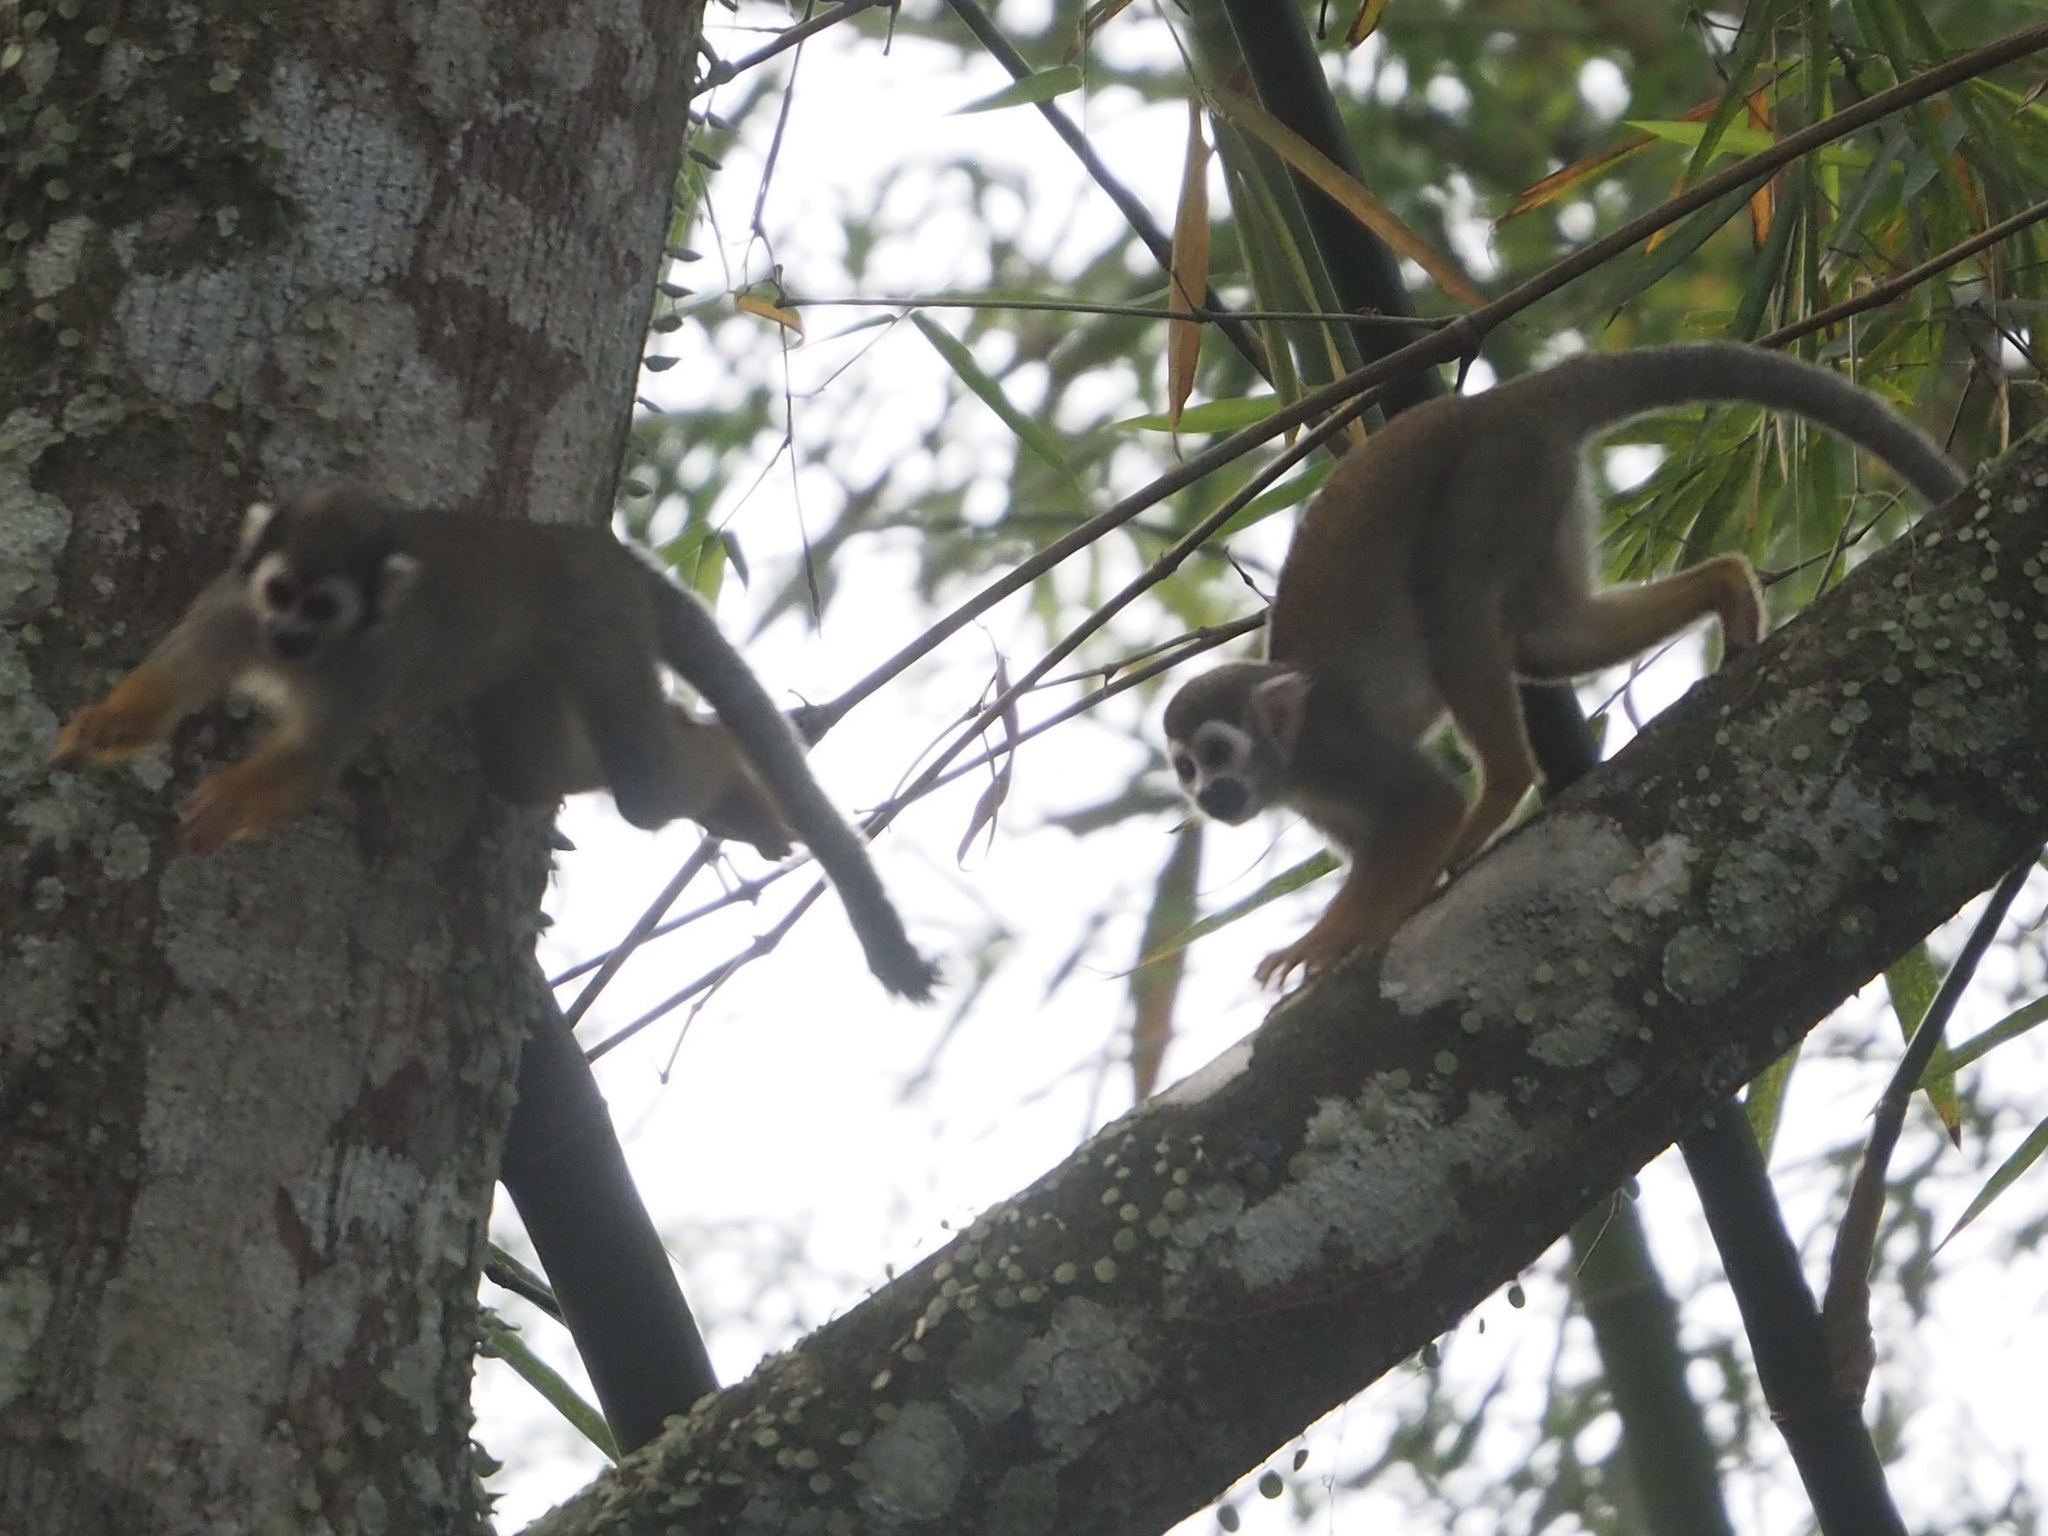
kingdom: Animalia
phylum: Chordata
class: Mammalia
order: Primates
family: Cebidae
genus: Saimiri
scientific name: Saimiri sciureus
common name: Common squirrel monkey
